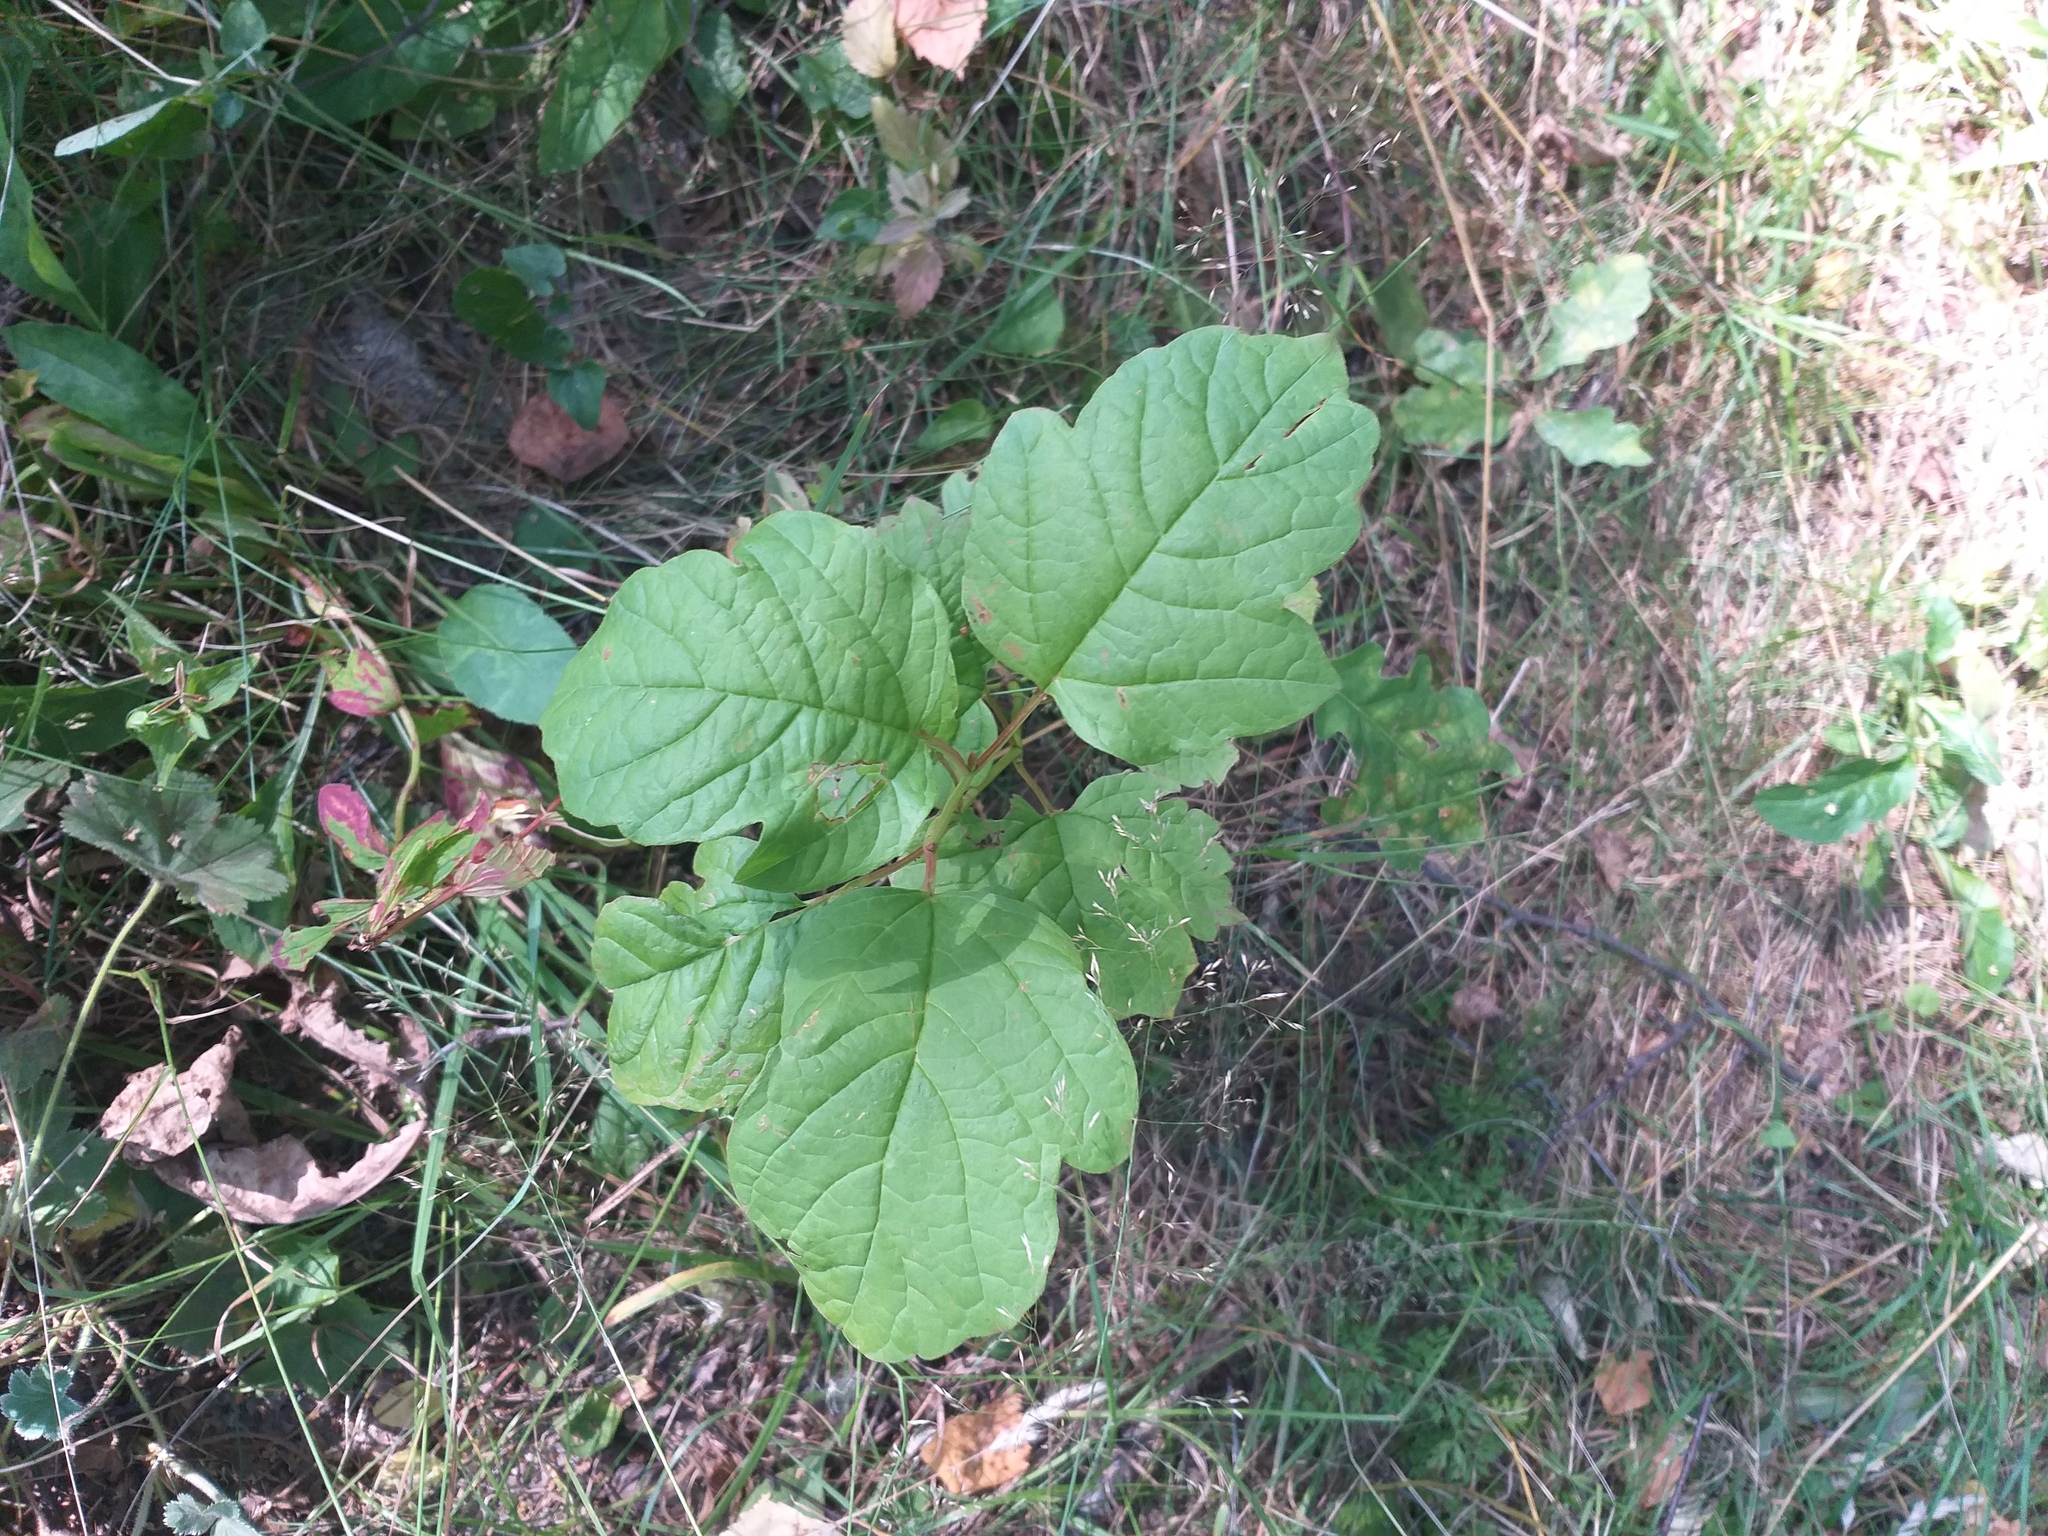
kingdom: Plantae
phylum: Tracheophyta
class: Magnoliopsida
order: Dipsacales
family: Viburnaceae
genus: Viburnum
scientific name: Viburnum opulus
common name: Guelder-rose
